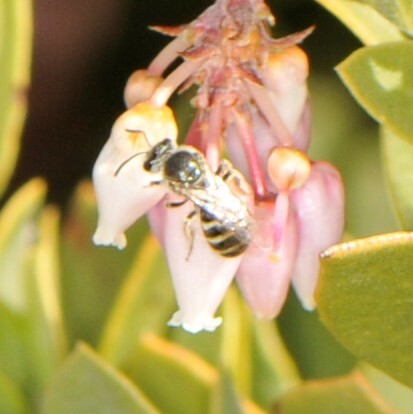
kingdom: Animalia
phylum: Arthropoda
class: Insecta
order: Hymenoptera
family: Halictidae
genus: Lasioglossum
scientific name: Lasioglossum
